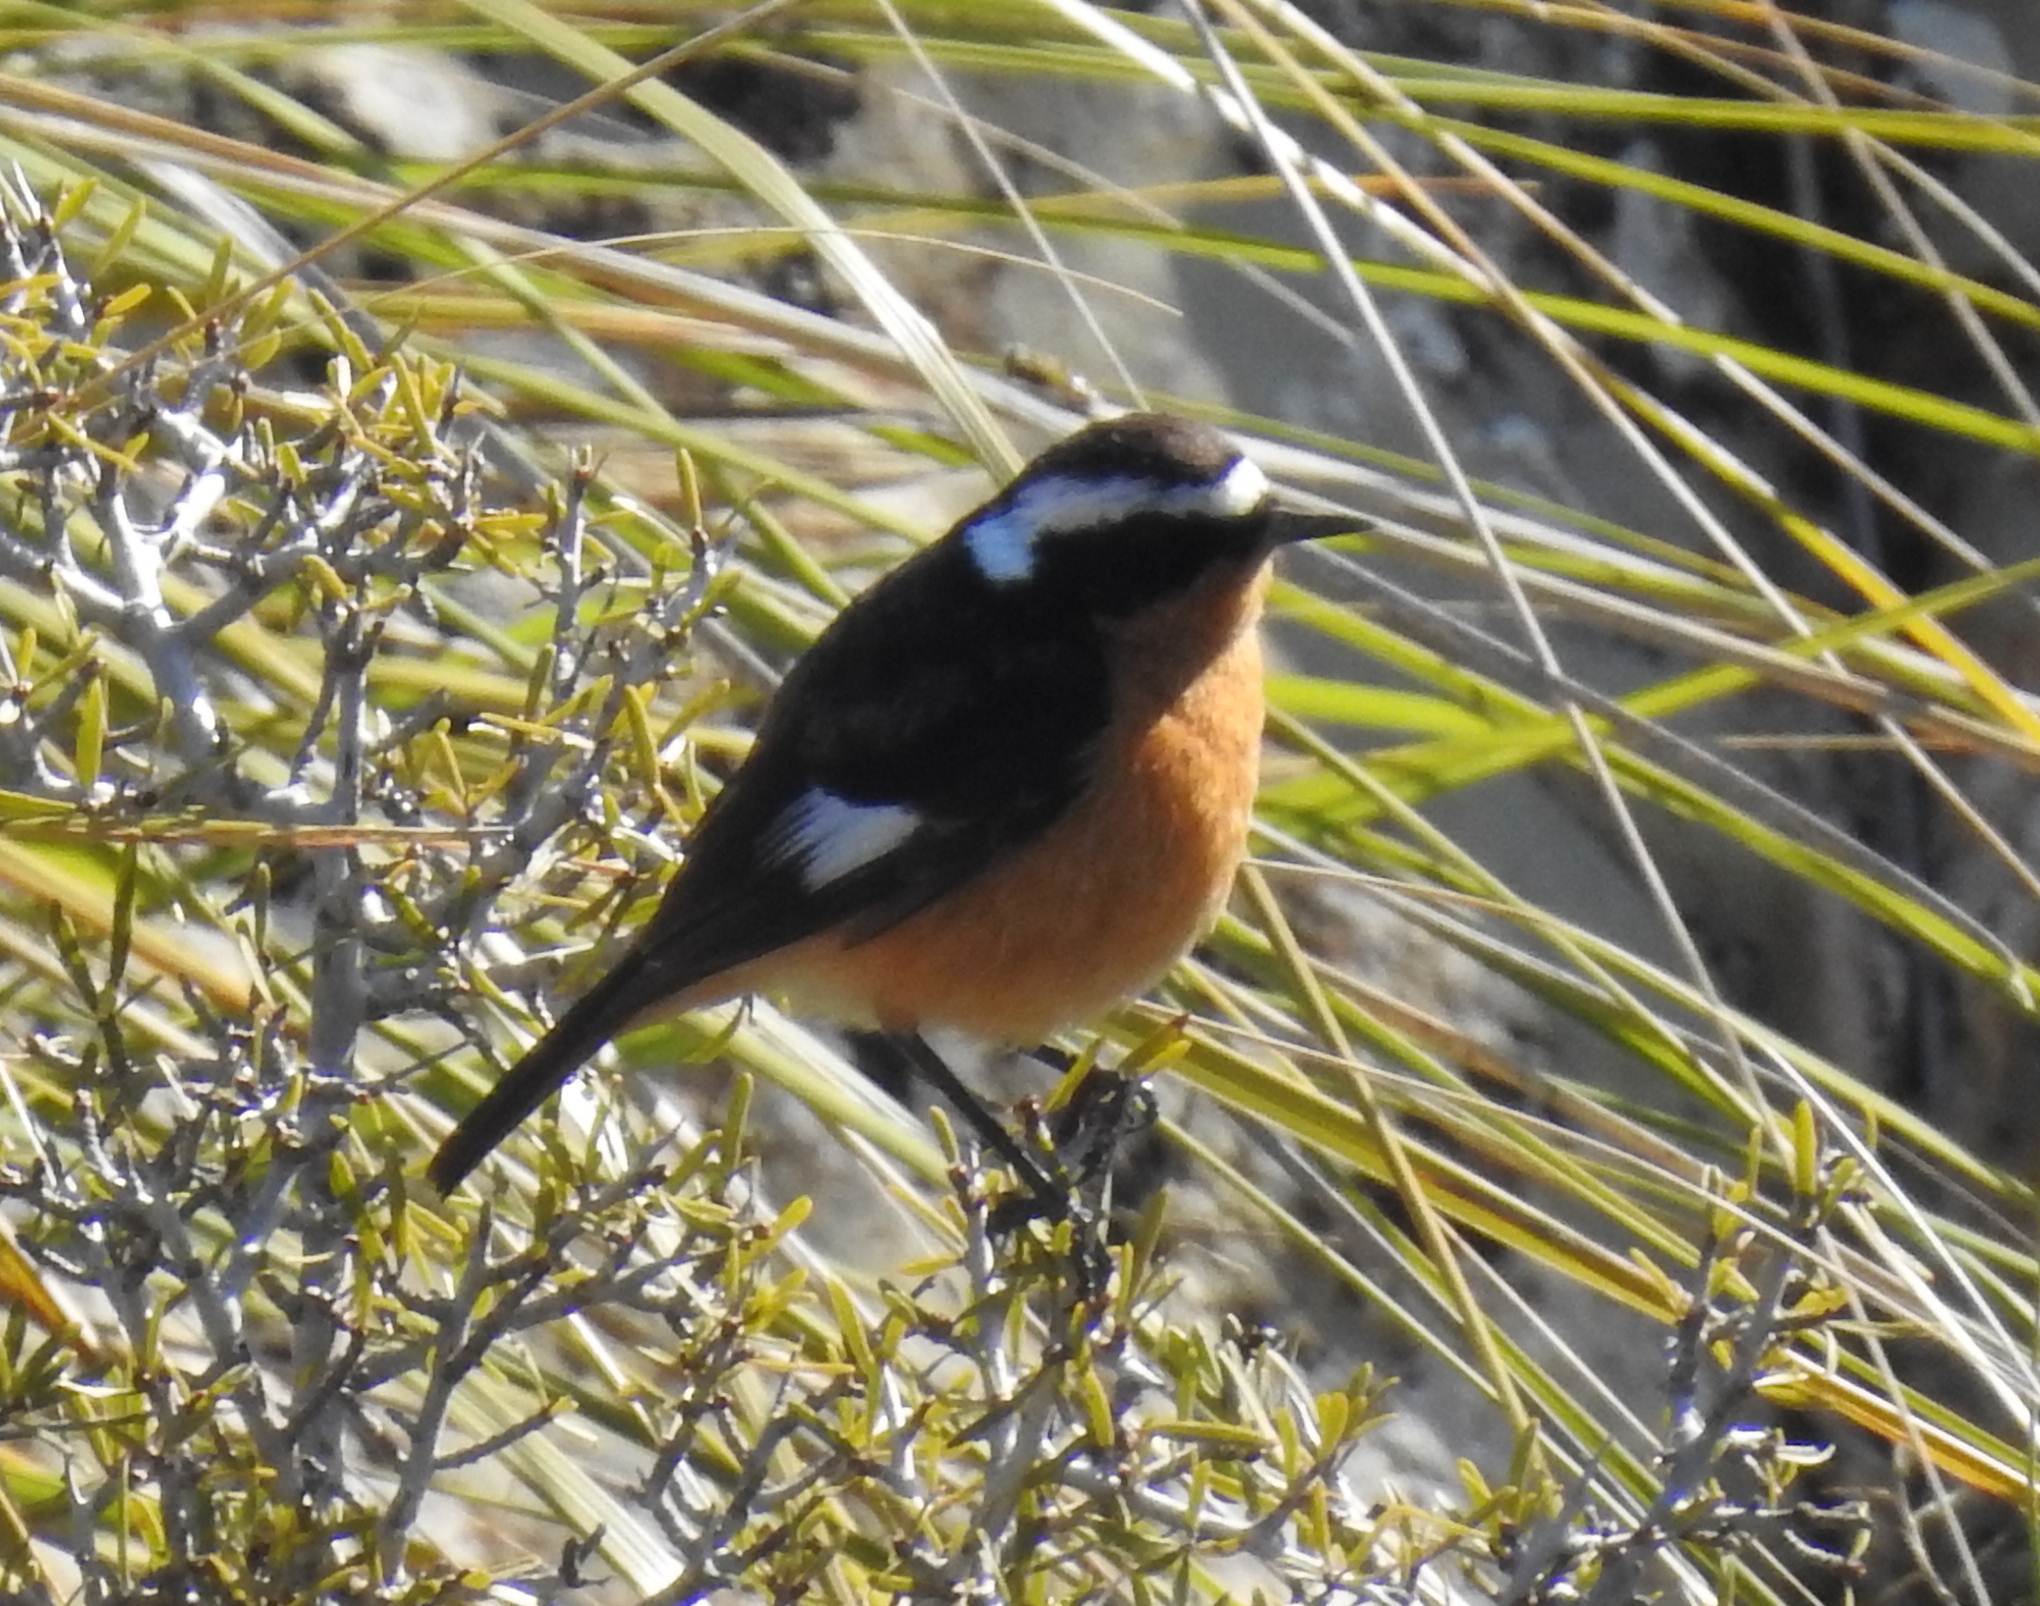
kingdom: Animalia
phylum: Chordata
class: Aves
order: Passeriformes
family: Muscicapidae
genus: Phoenicurus
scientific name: Phoenicurus moussieri
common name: Moussier's redstart
